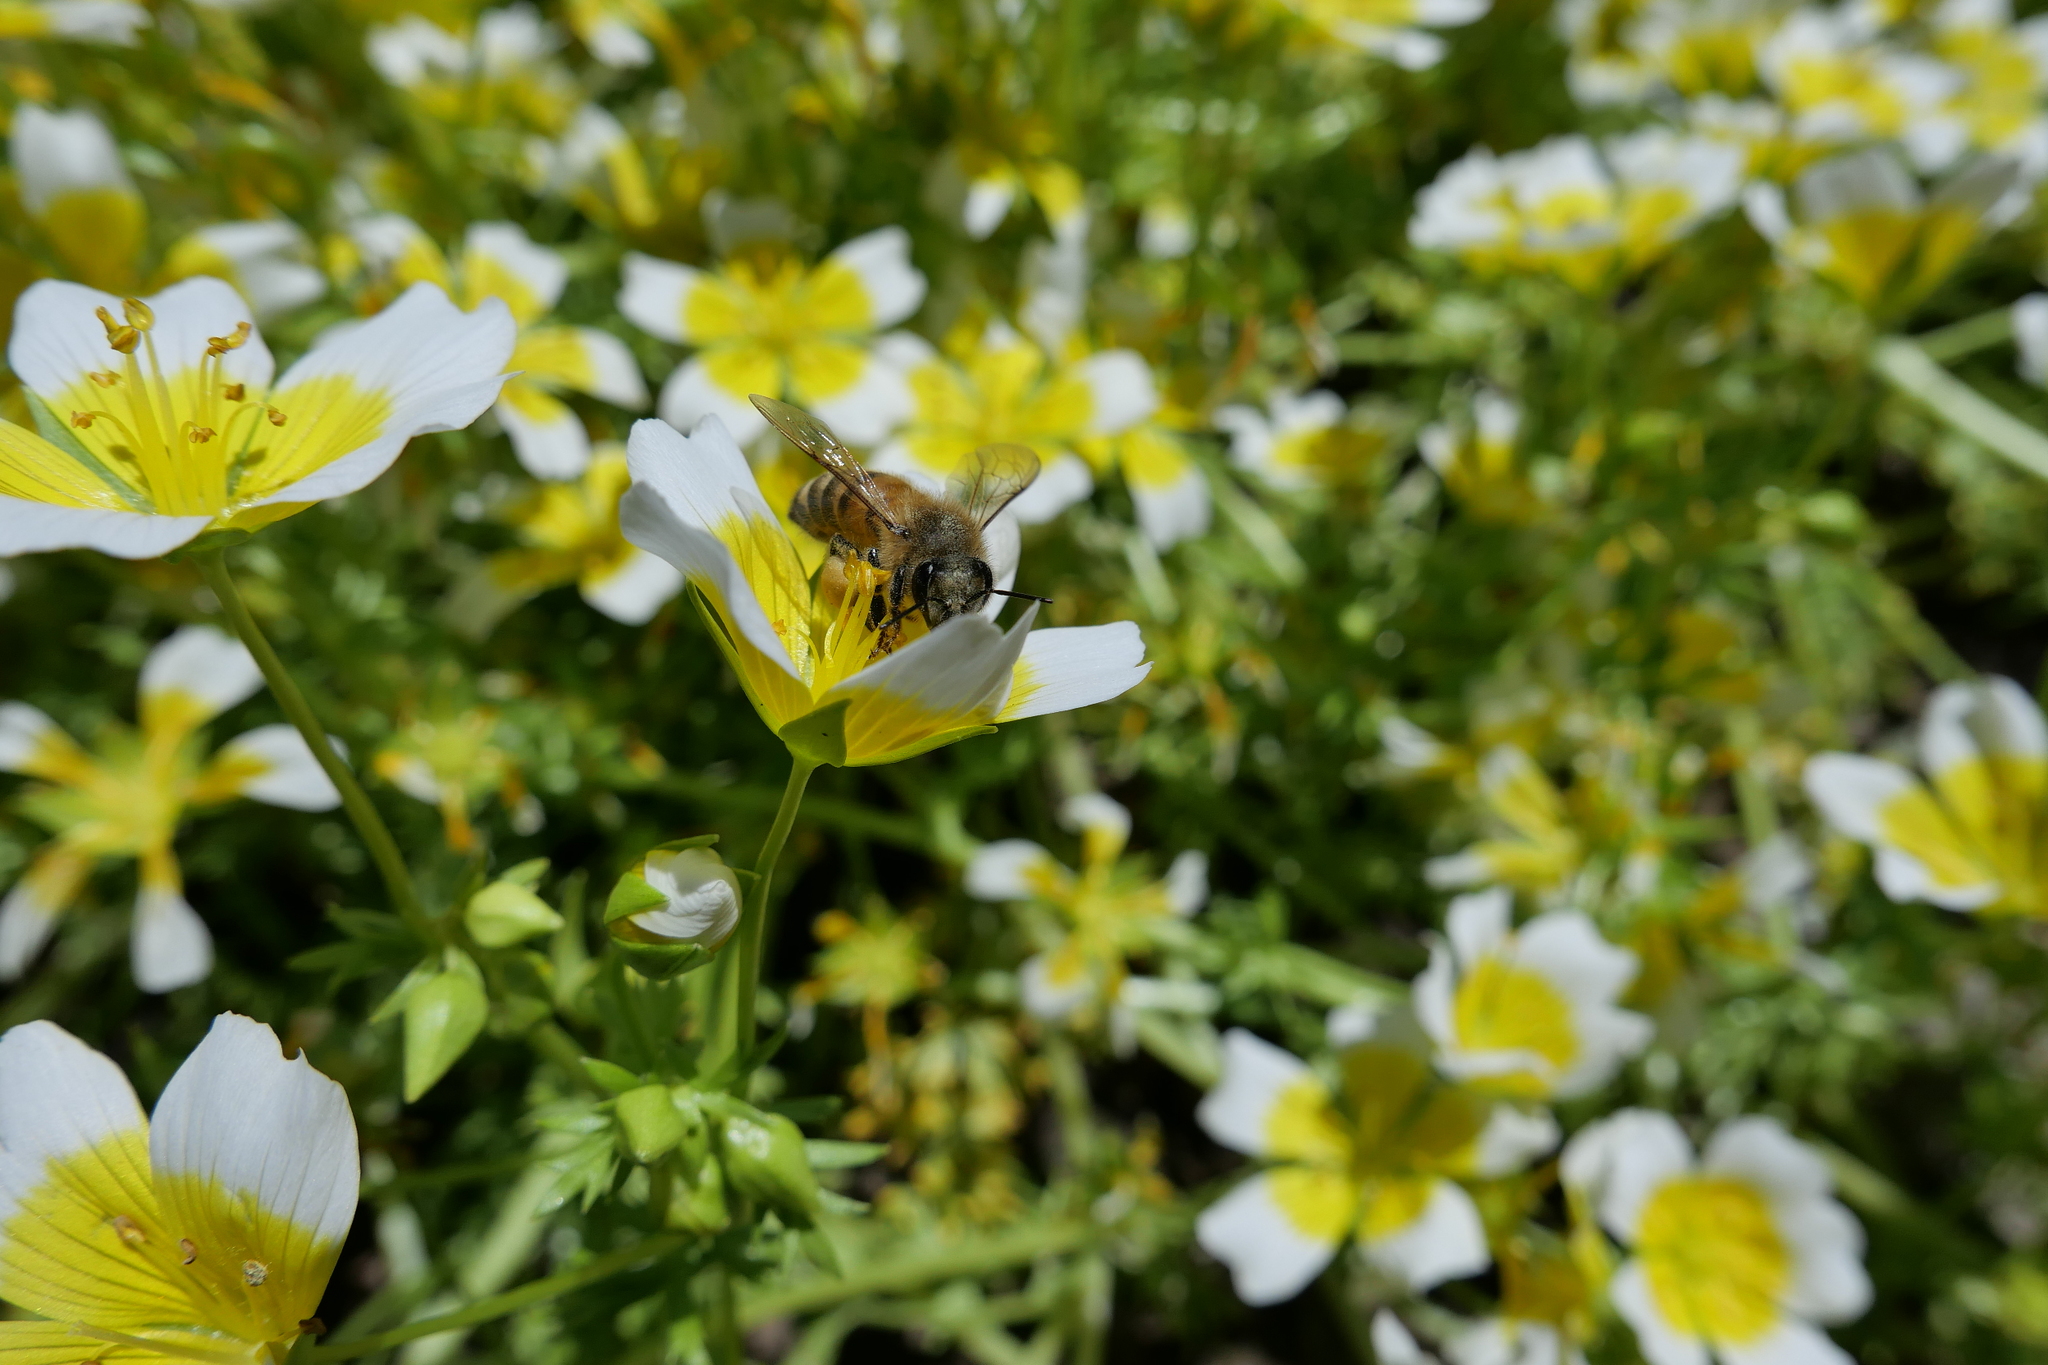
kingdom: Animalia
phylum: Arthropoda
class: Insecta
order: Hymenoptera
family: Apidae
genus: Apis
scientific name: Apis mellifera
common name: Honey bee
